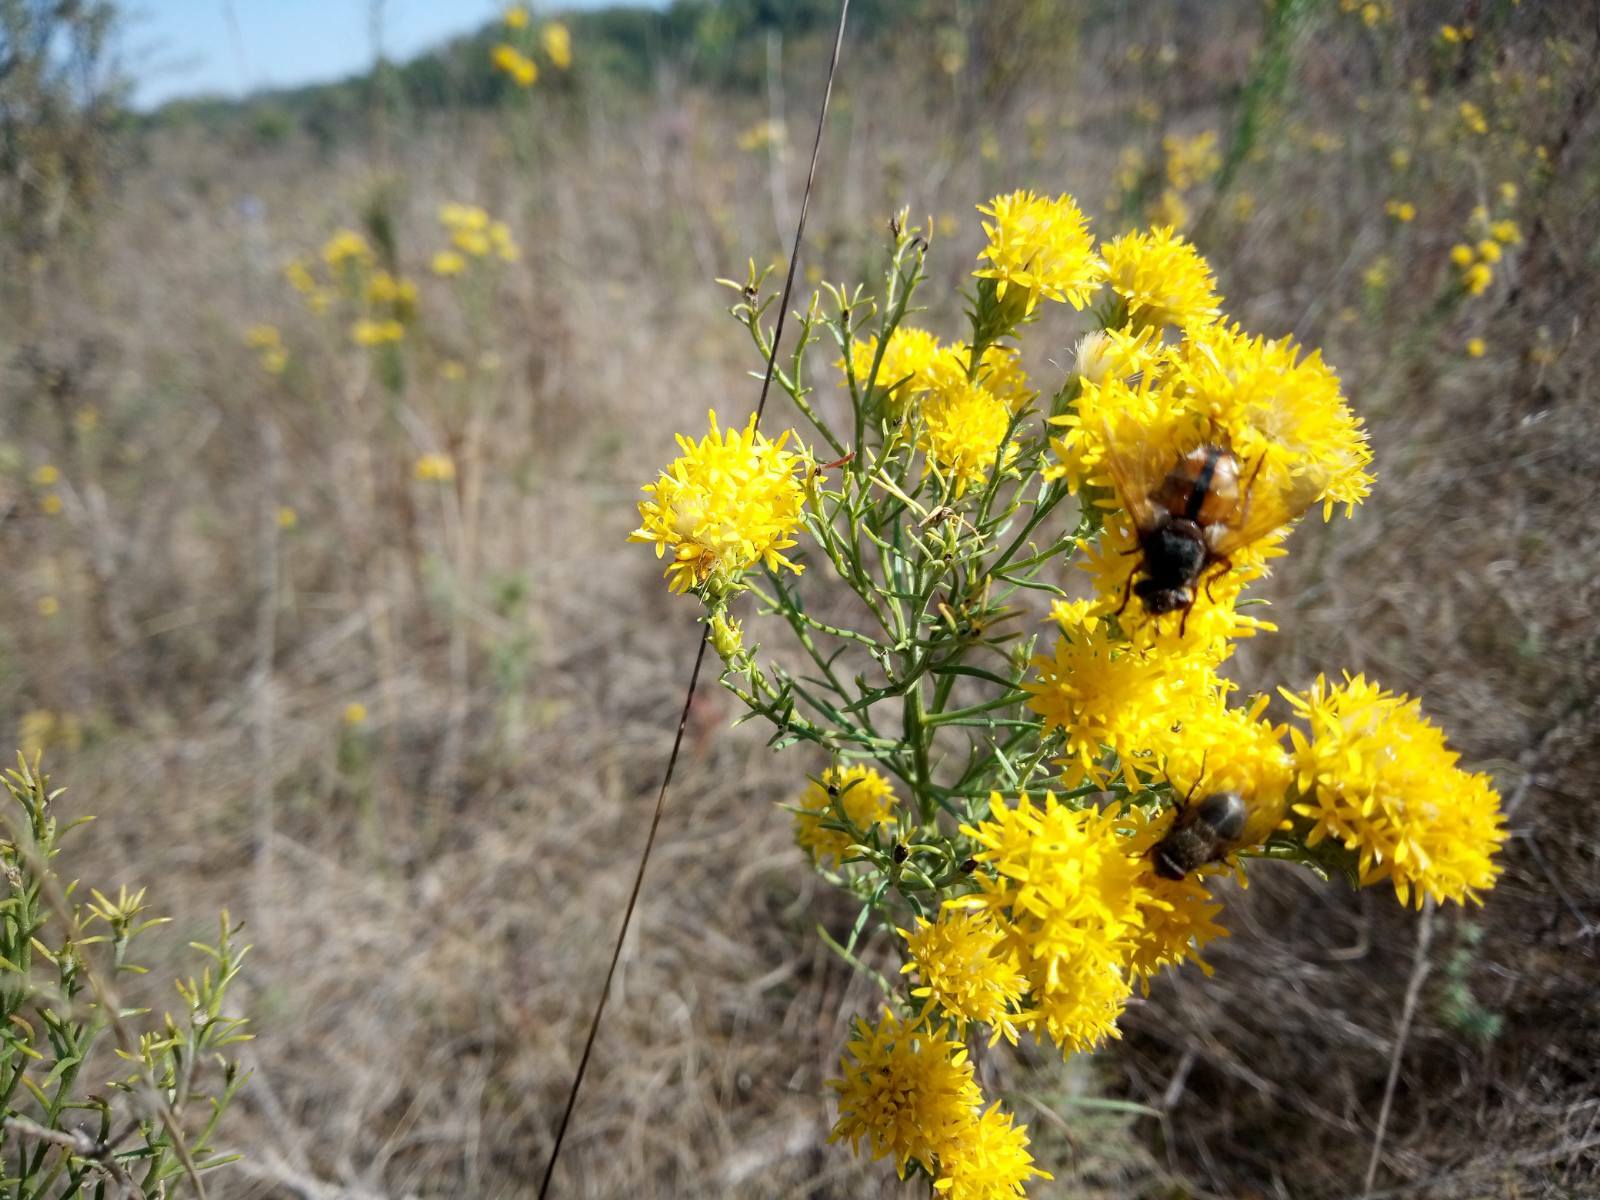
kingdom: Plantae
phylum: Tracheophyta
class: Magnoliopsida
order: Asterales
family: Asteraceae
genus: Galatella
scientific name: Galatella linosyris
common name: Goldilocks aster
